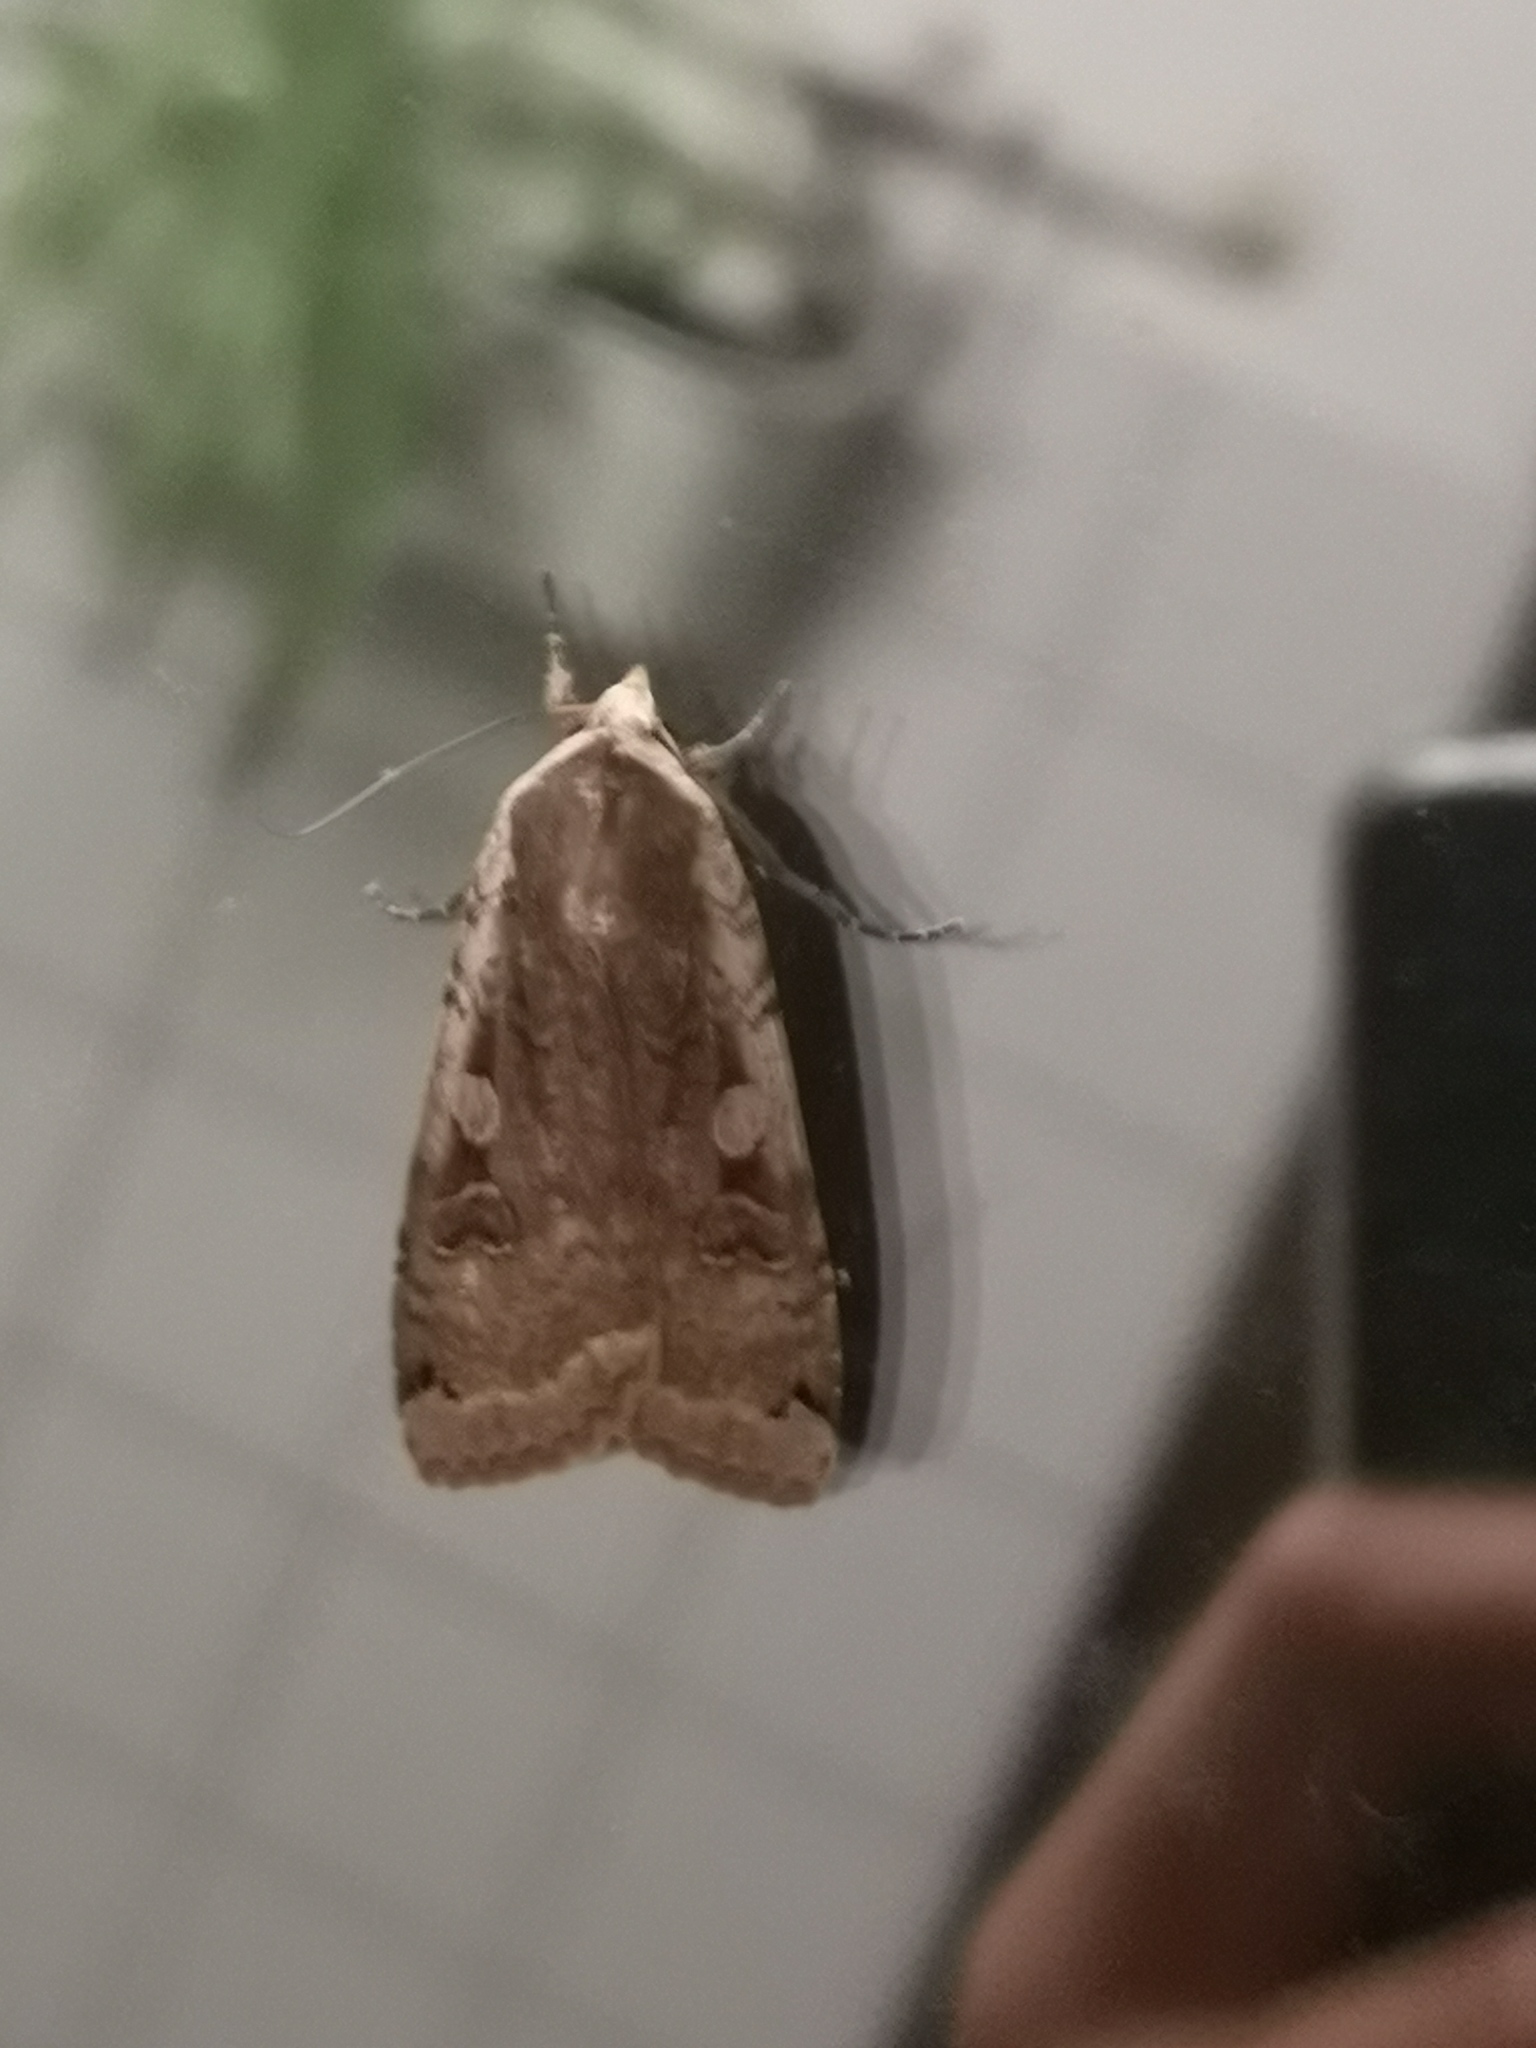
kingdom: Animalia
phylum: Arthropoda
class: Insecta
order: Lepidoptera
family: Noctuidae
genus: Noctua
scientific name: Noctua pronuba
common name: Large yellow underwing
